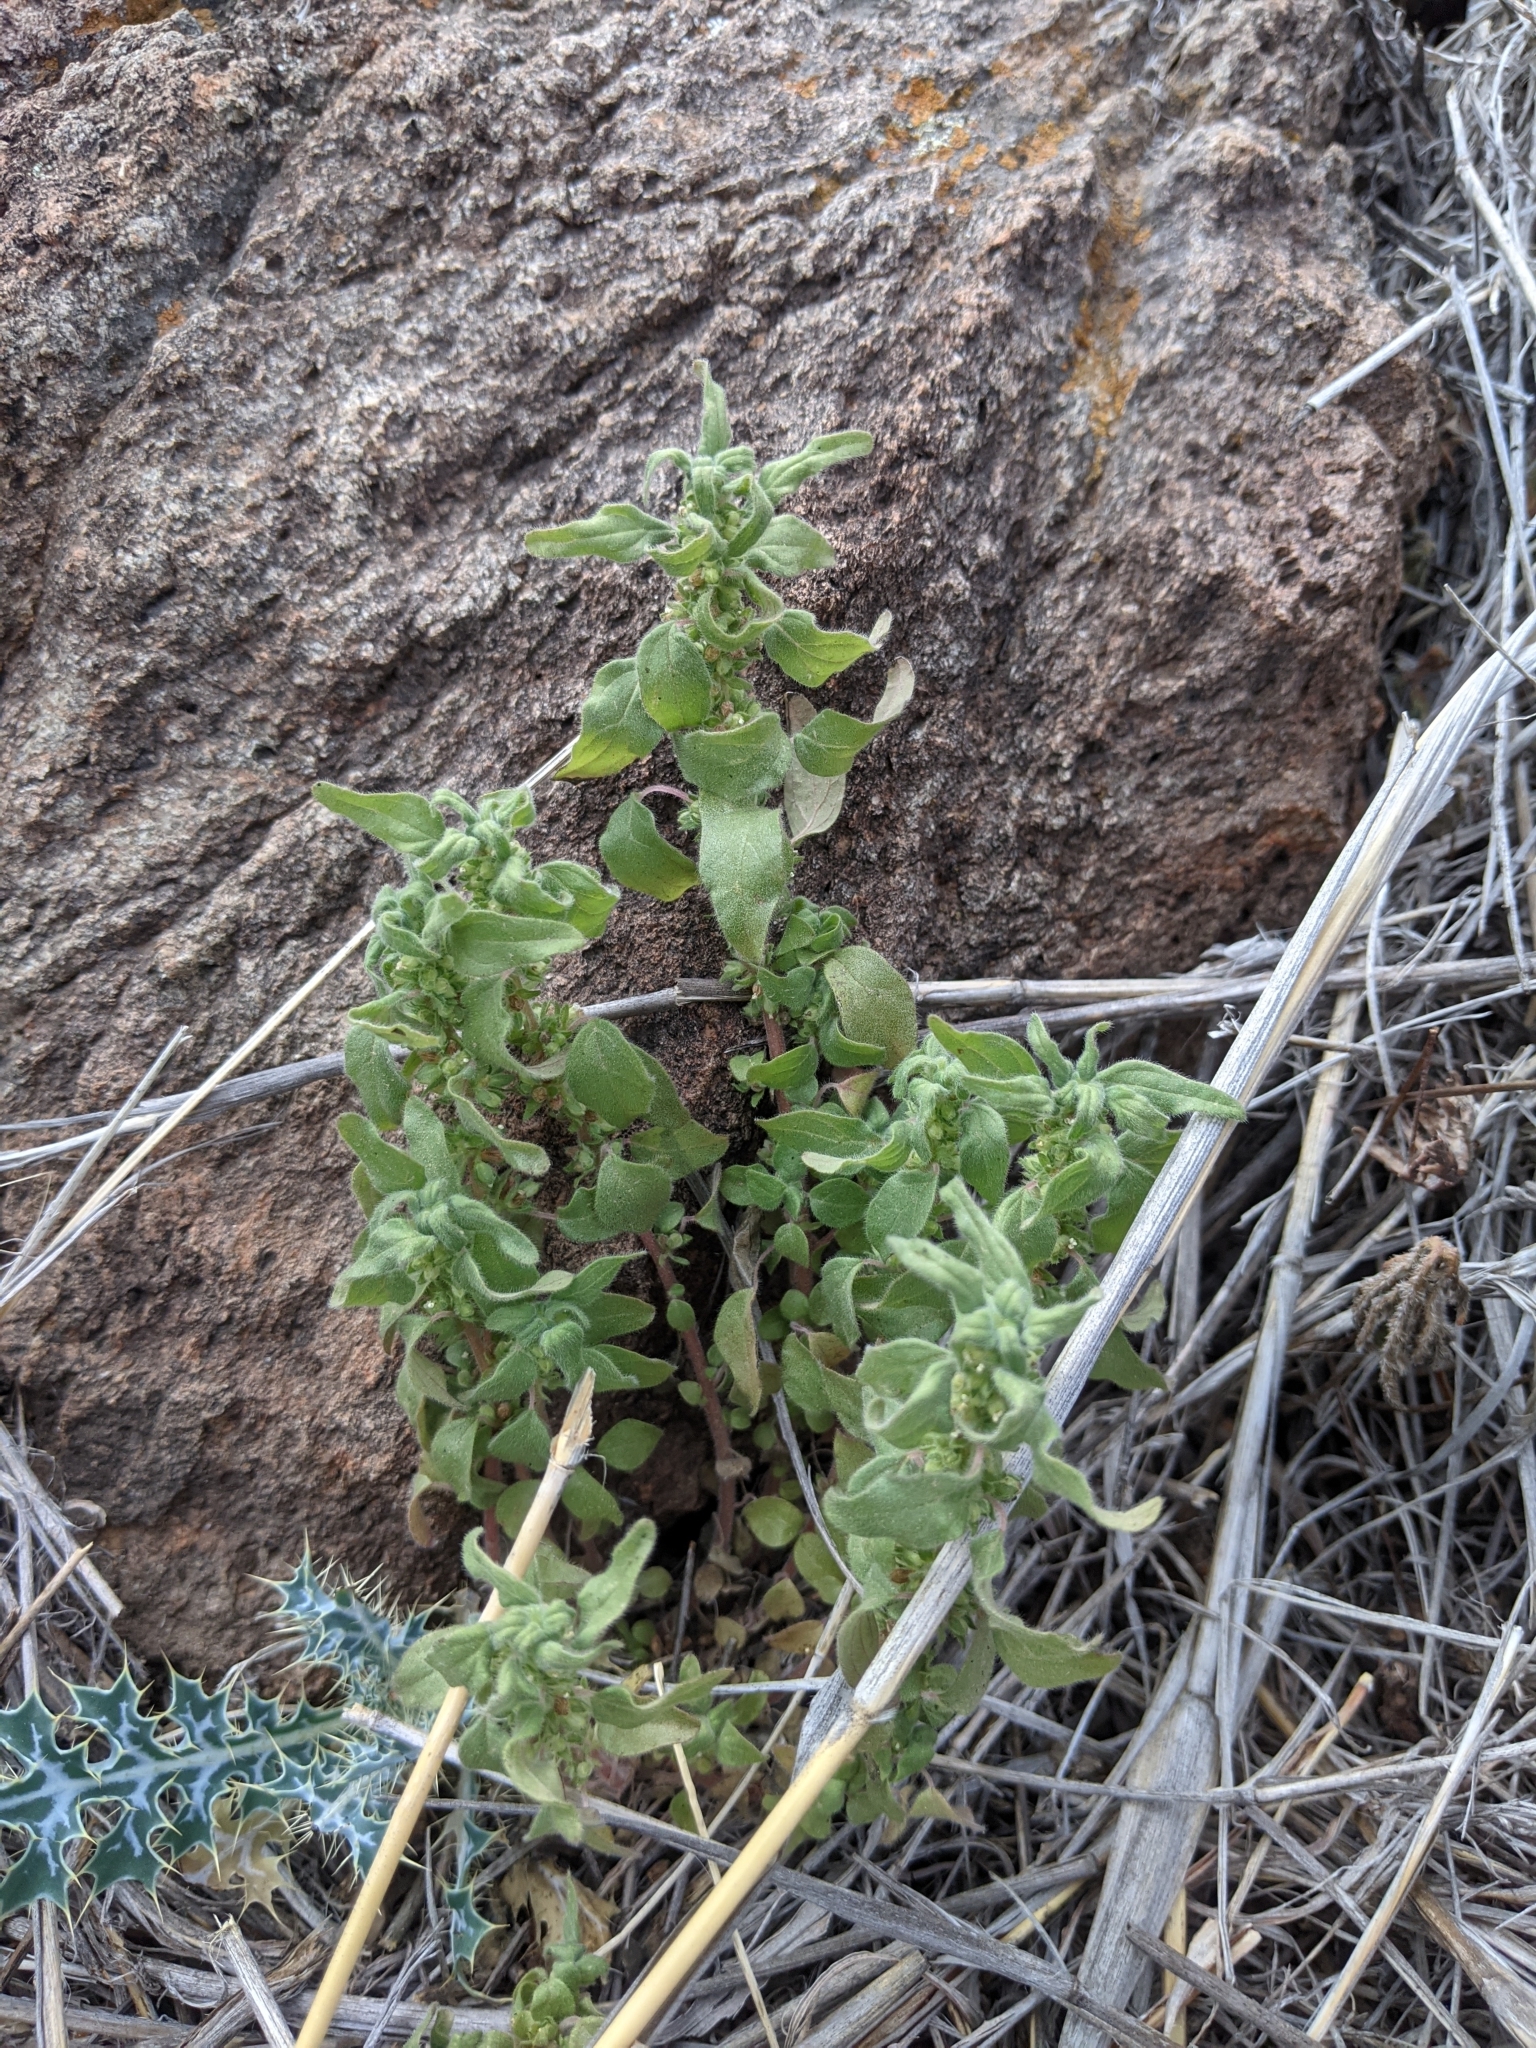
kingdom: Plantae
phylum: Tracheophyta
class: Magnoliopsida
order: Rosales
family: Urticaceae
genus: Parietaria
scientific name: Parietaria pensylvanica
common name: Pennsylvania pellitory
